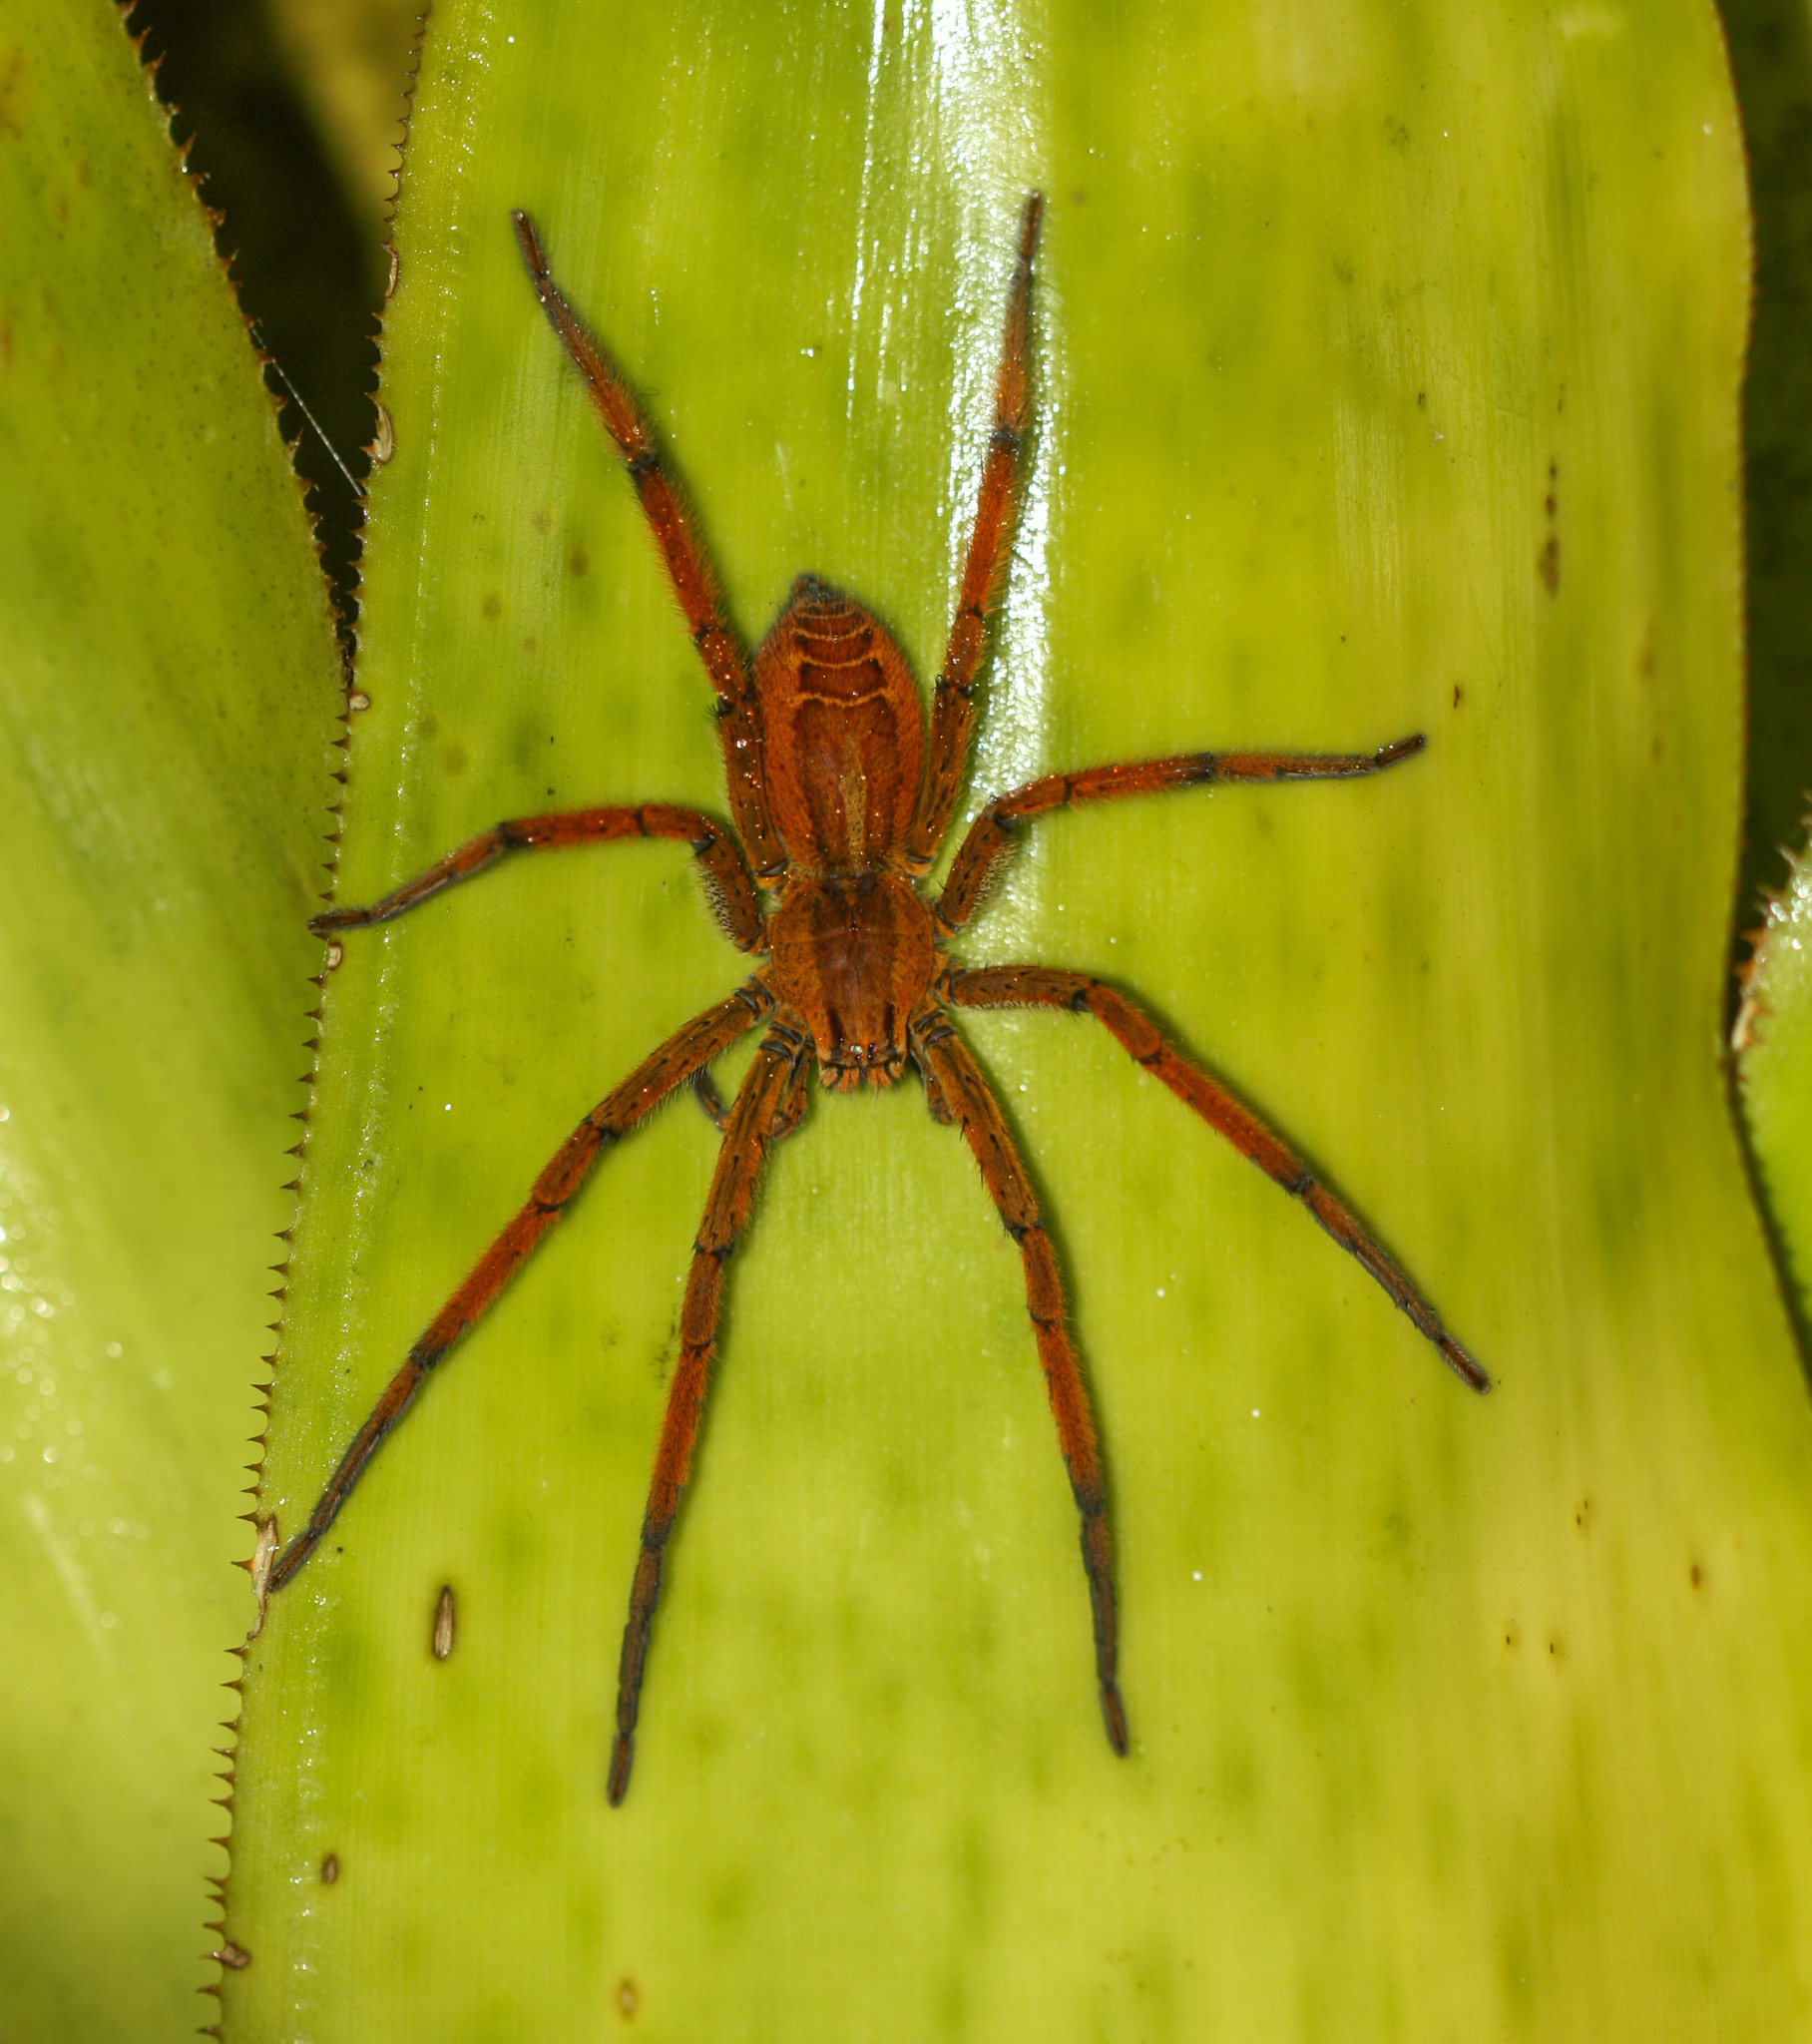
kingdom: Animalia
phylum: Arthropoda
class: Arachnida
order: Araneae
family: Trechaleidae
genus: Cupiennius
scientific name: Cupiennius getazi
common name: Wandering spiders
